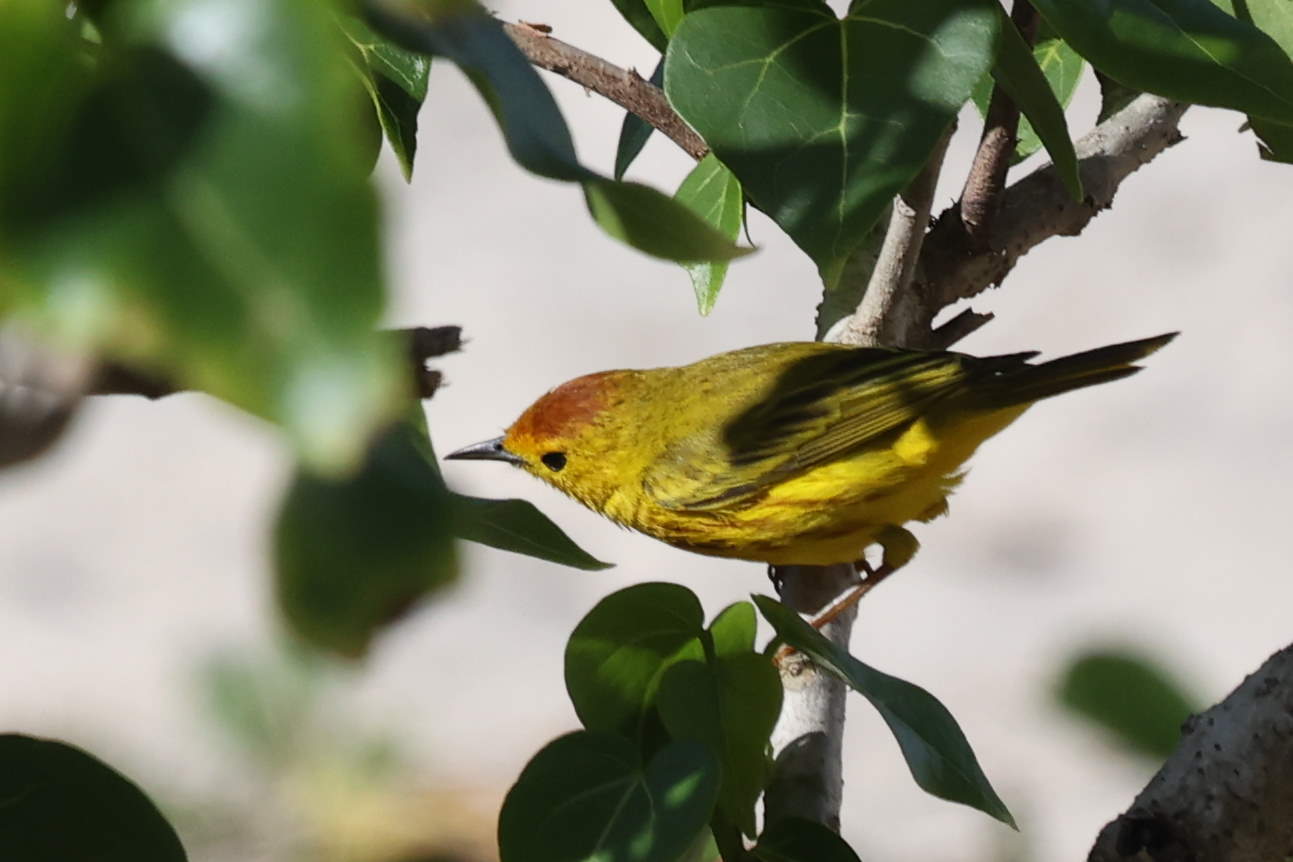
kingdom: Animalia
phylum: Chordata
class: Aves
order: Passeriformes
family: Parulidae
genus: Setophaga
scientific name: Setophaga petechia
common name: Yellow warbler
